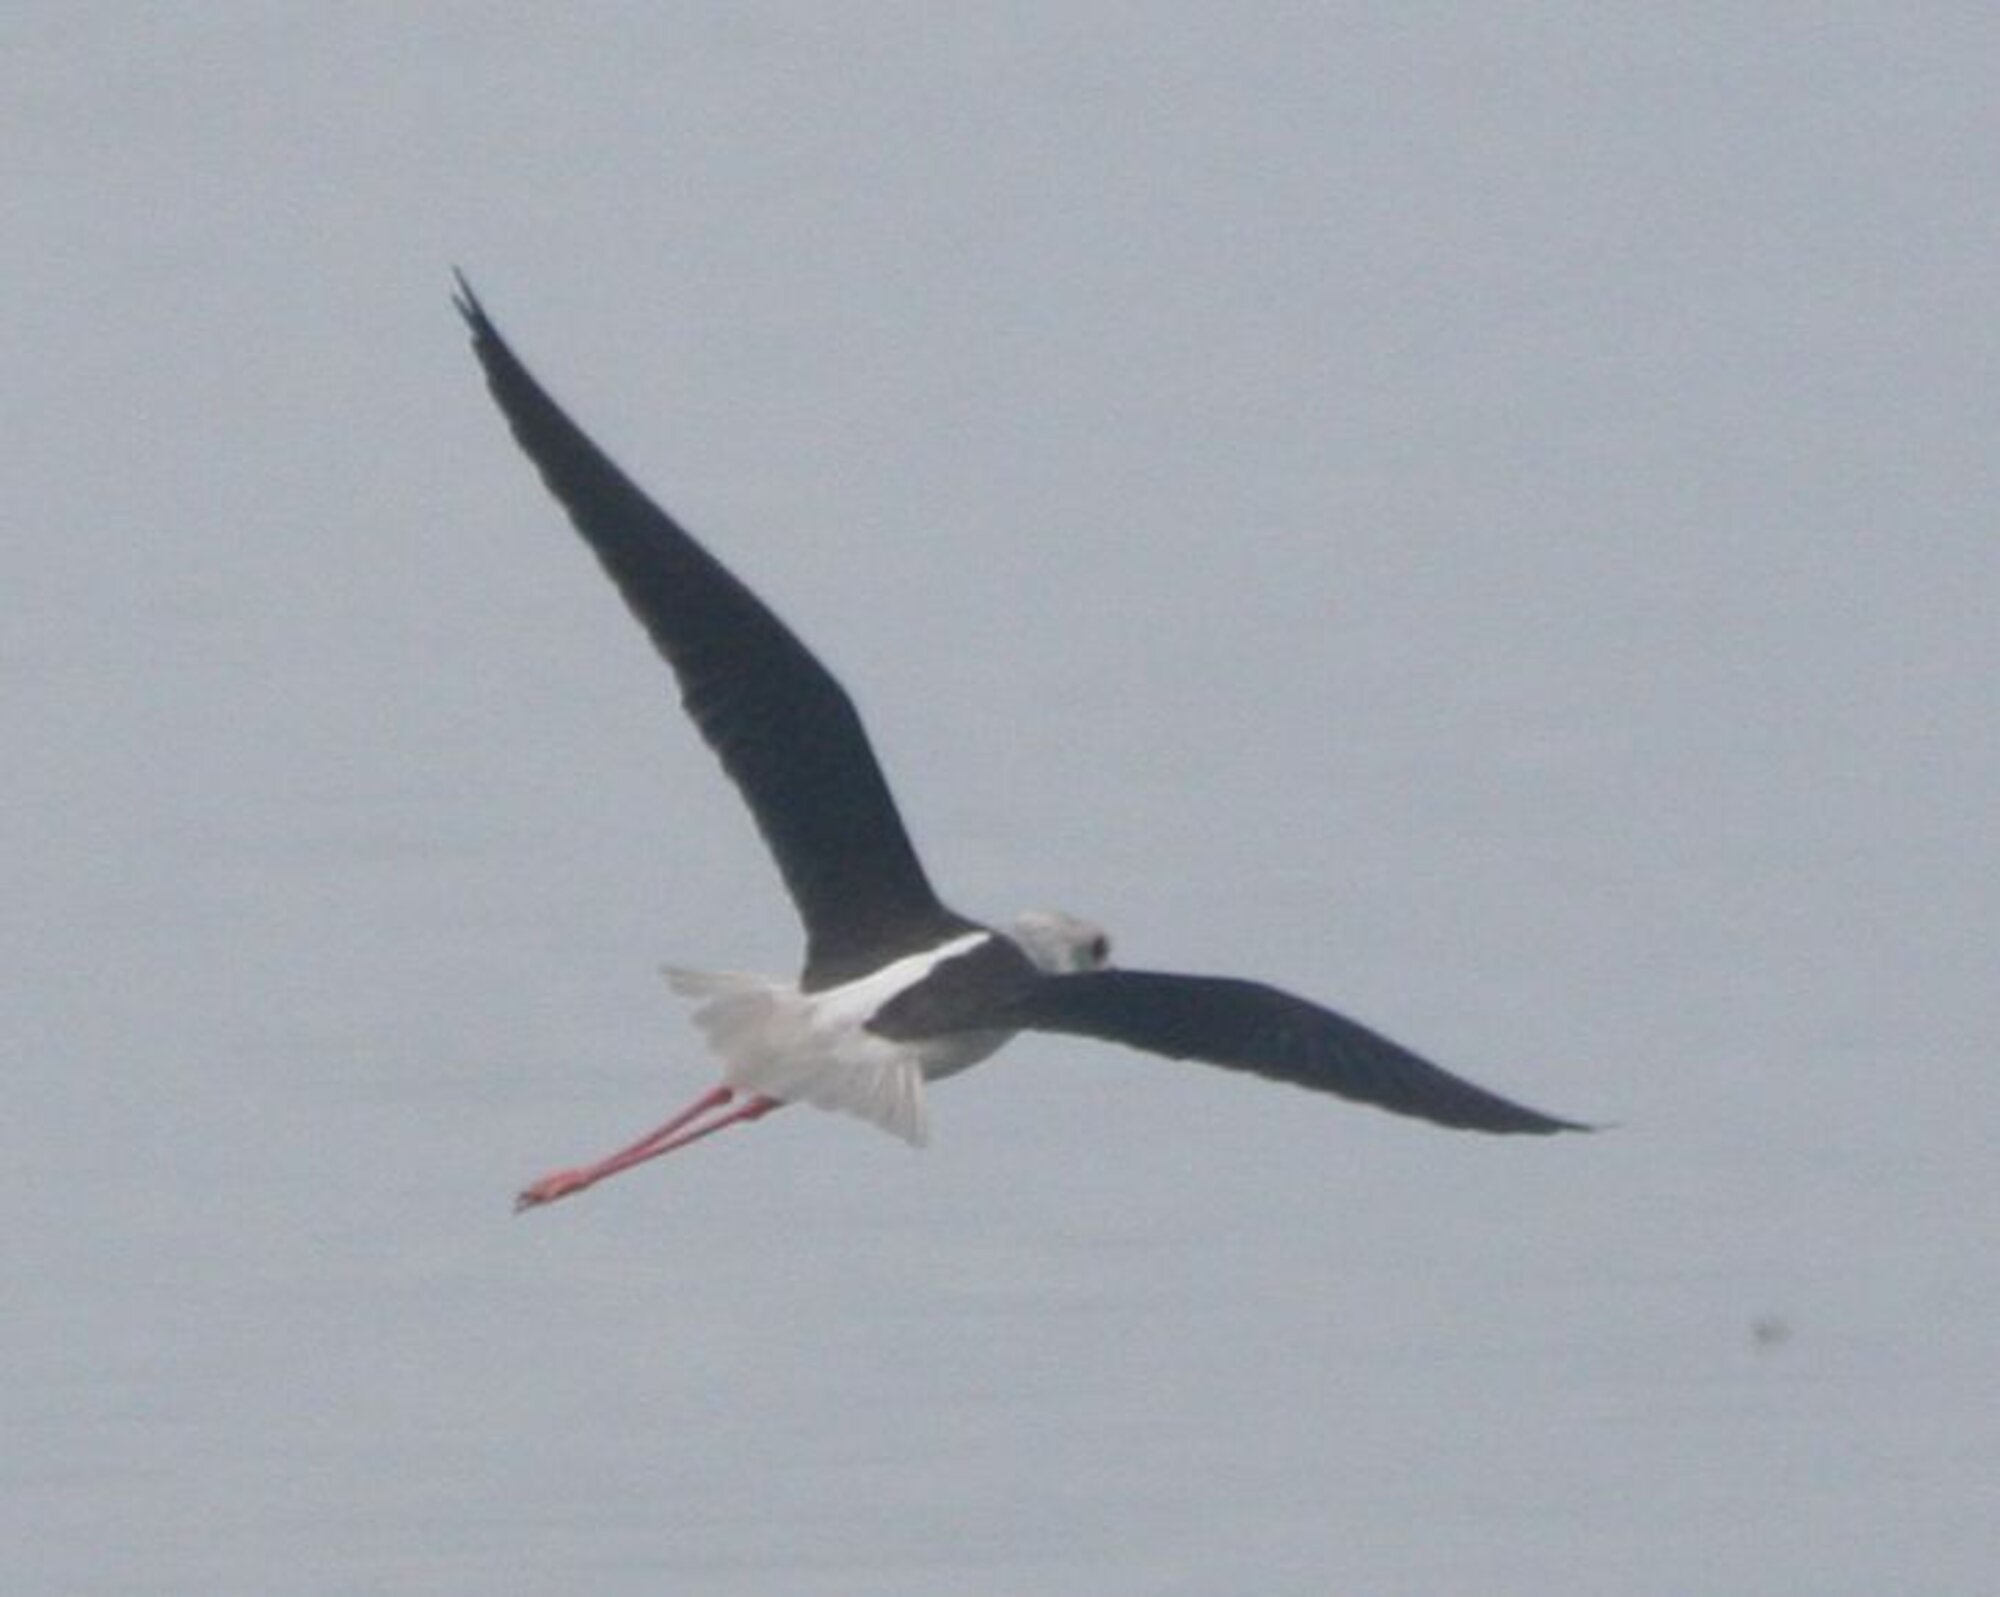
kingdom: Animalia
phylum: Chordata
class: Aves
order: Charadriiformes
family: Recurvirostridae
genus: Himantopus
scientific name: Himantopus himantopus
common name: Black-winged stilt
